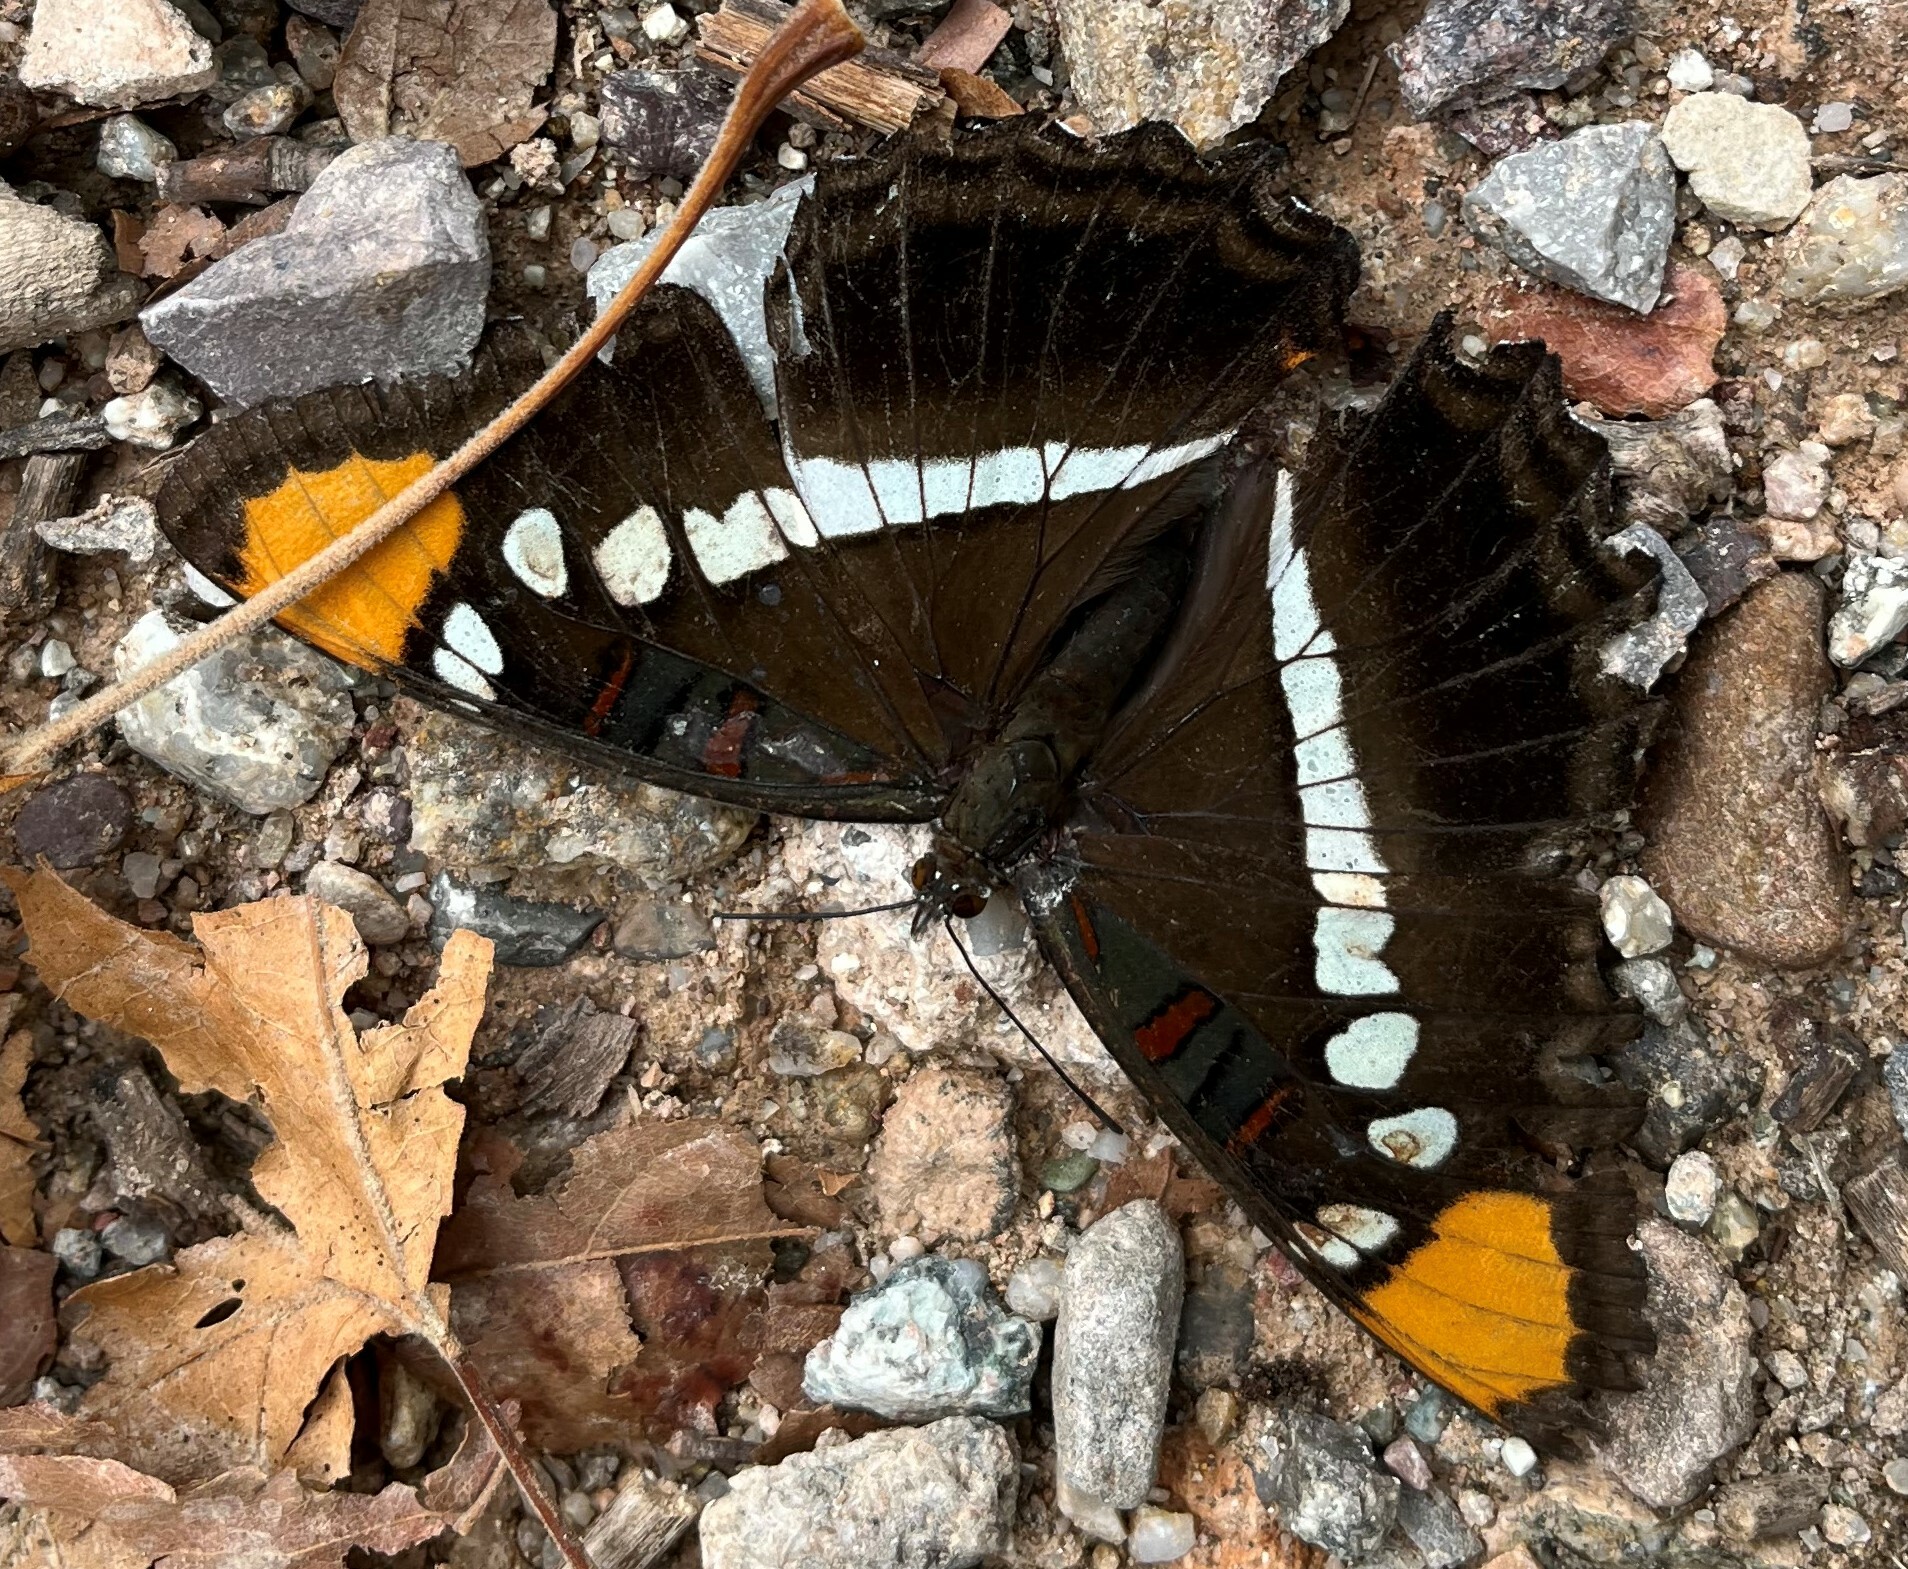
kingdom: Animalia
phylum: Arthropoda
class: Insecta
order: Lepidoptera
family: Nymphalidae
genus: Limenitis
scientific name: Limenitis bredowii
